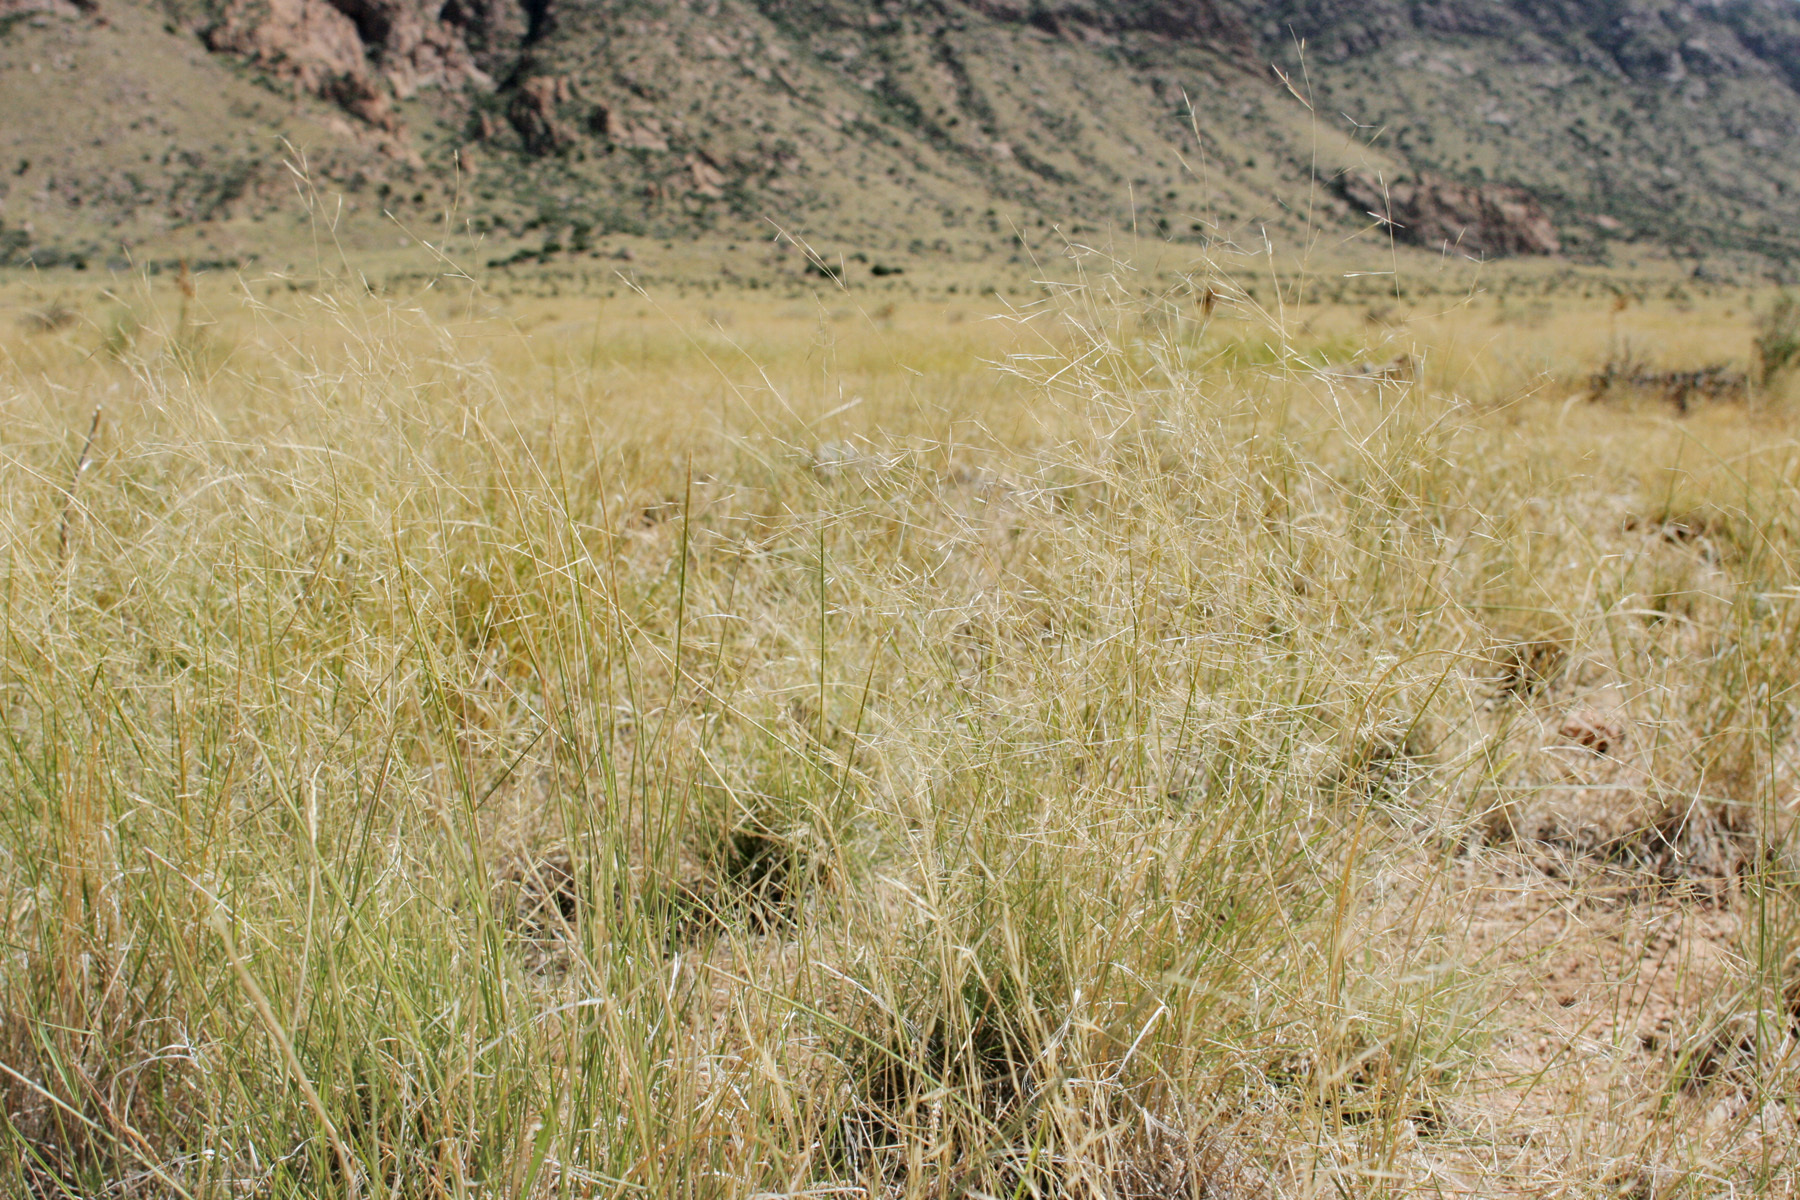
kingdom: Plantae
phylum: Tracheophyta
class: Liliopsida
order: Poales
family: Poaceae
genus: Aristida
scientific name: Aristida pansa
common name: Wooton's three-awn
